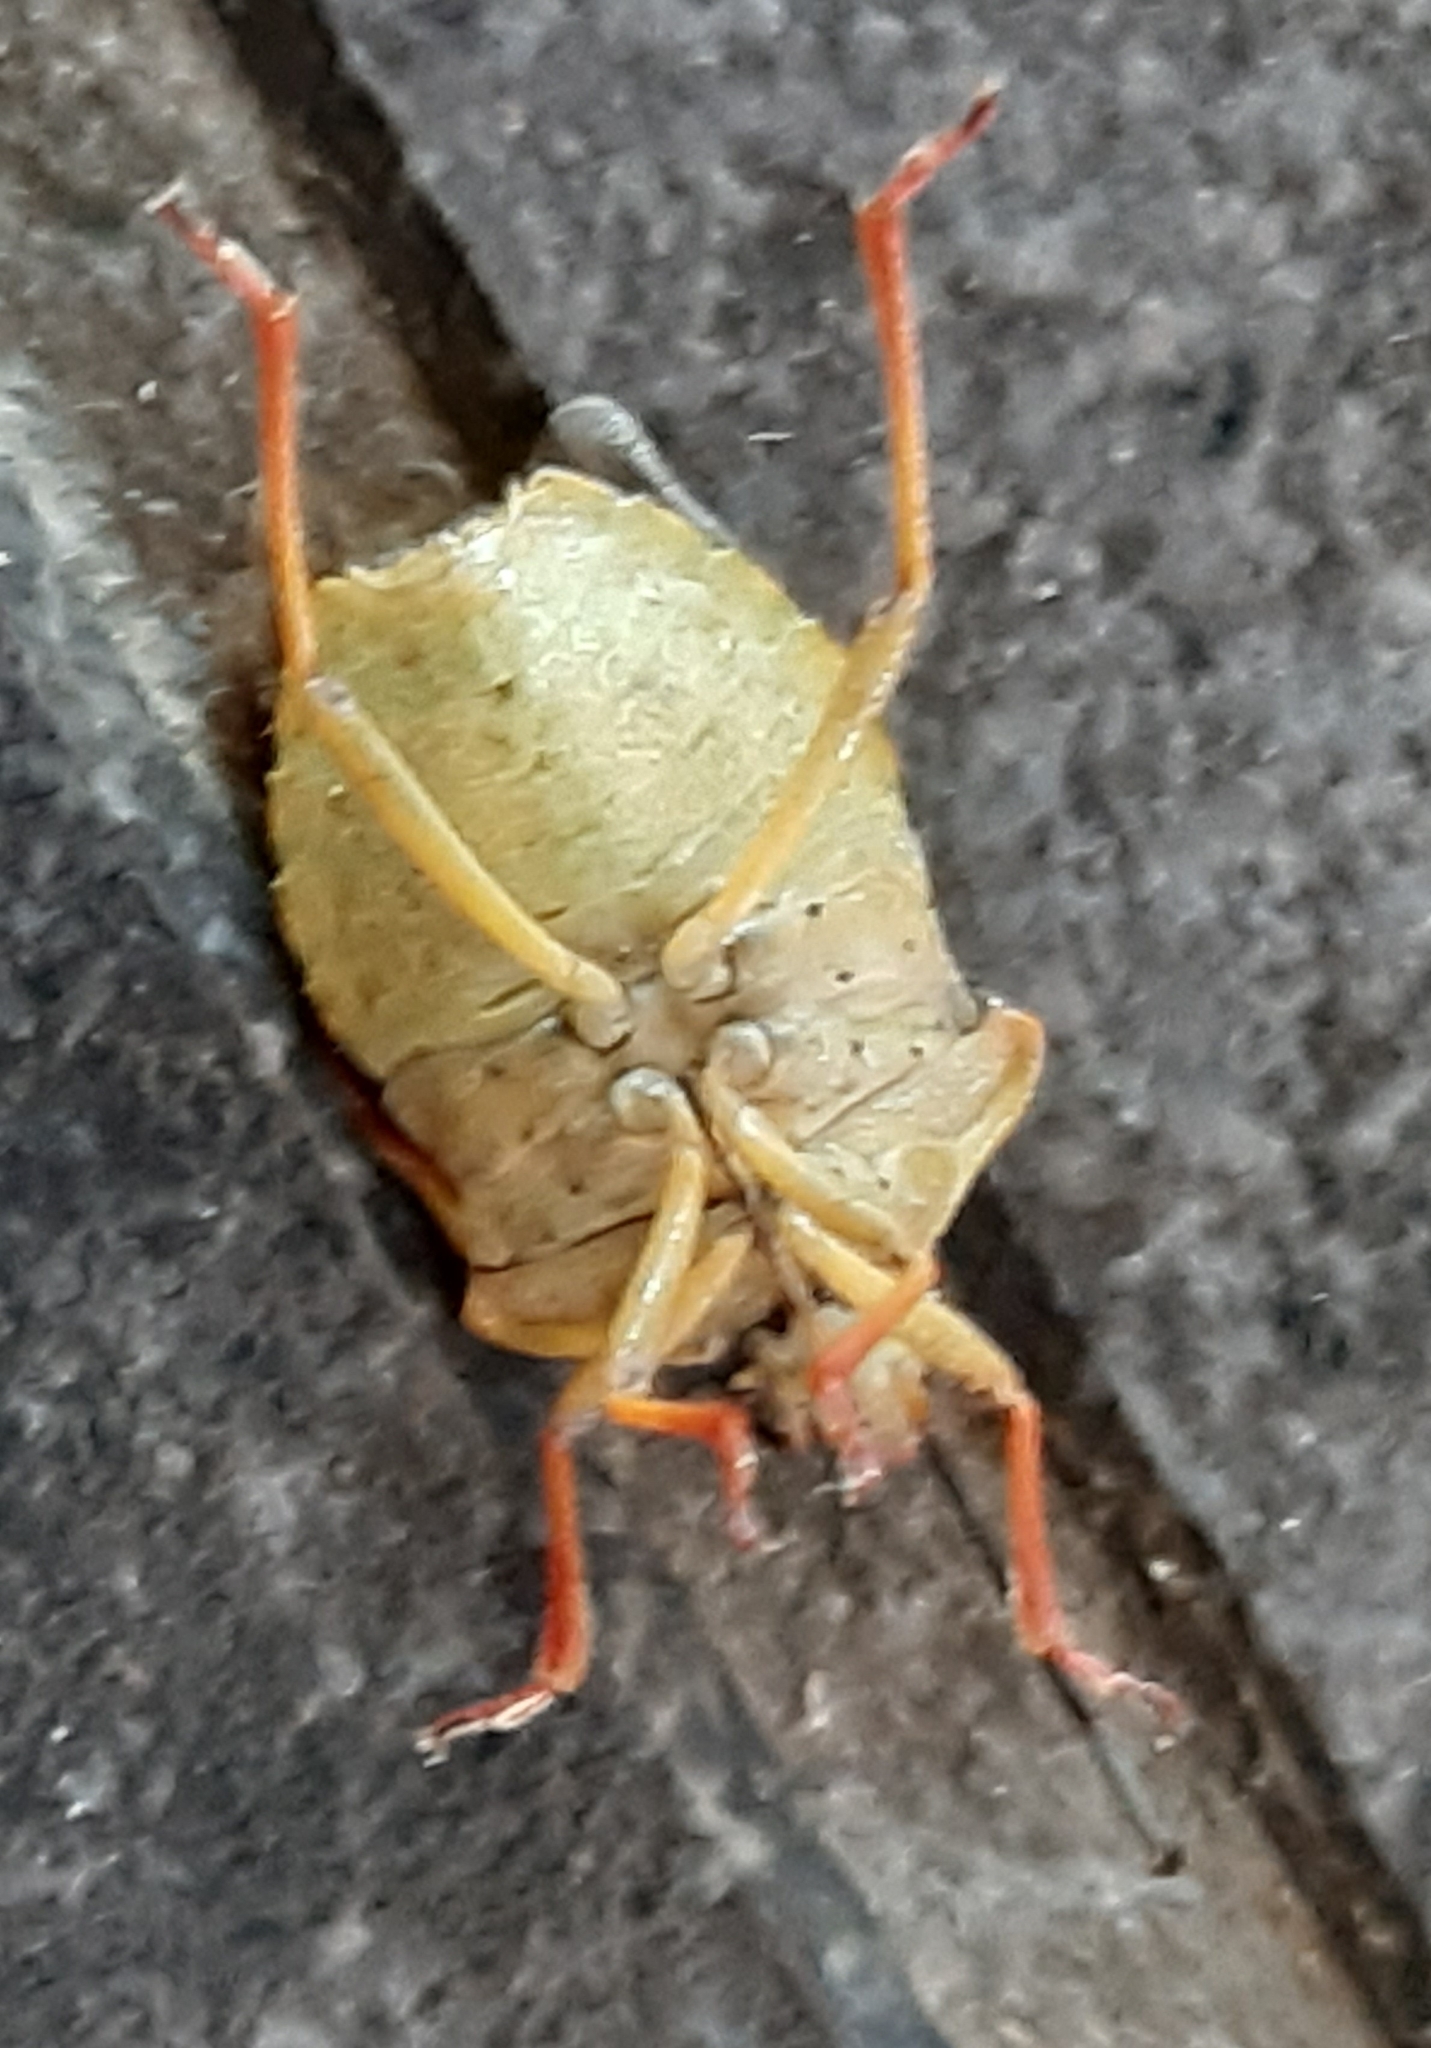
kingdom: Animalia
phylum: Arthropoda
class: Insecta
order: Hemiptera
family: Pentatomidae
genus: Carpocoris
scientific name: Carpocoris purpureipennis
